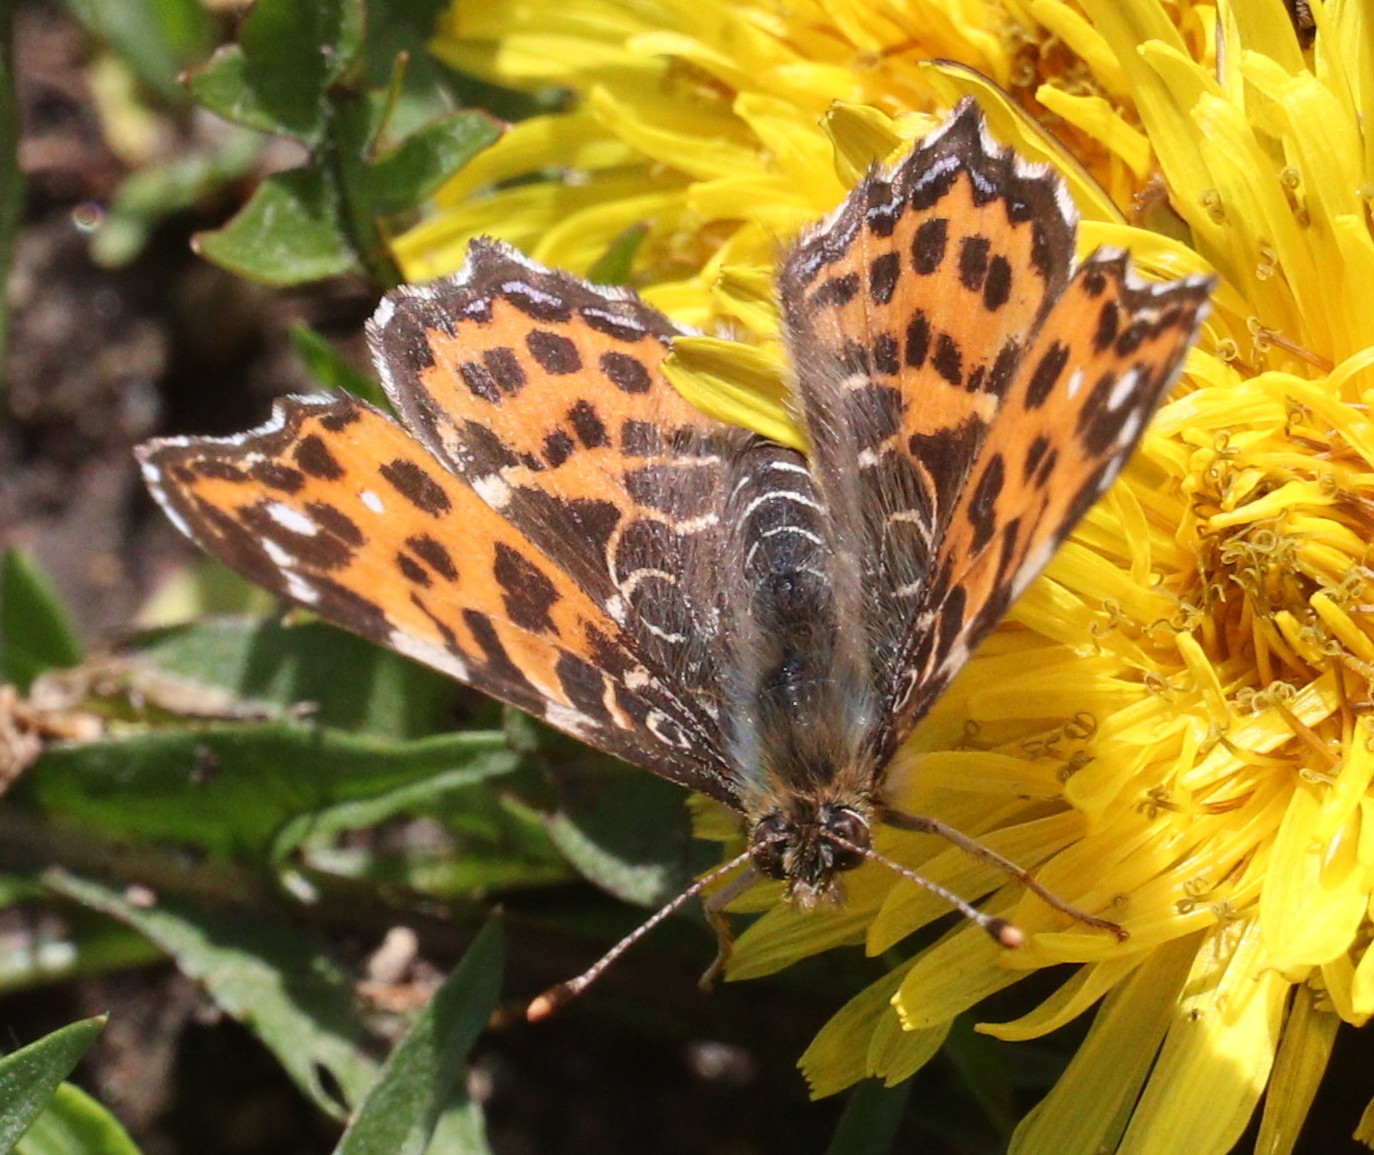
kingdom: Animalia
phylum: Arthropoda
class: Insecta
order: Lepidoptera
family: Nymphalidae
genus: Araschnia
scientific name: Araschnia levana
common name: Map butterfly
